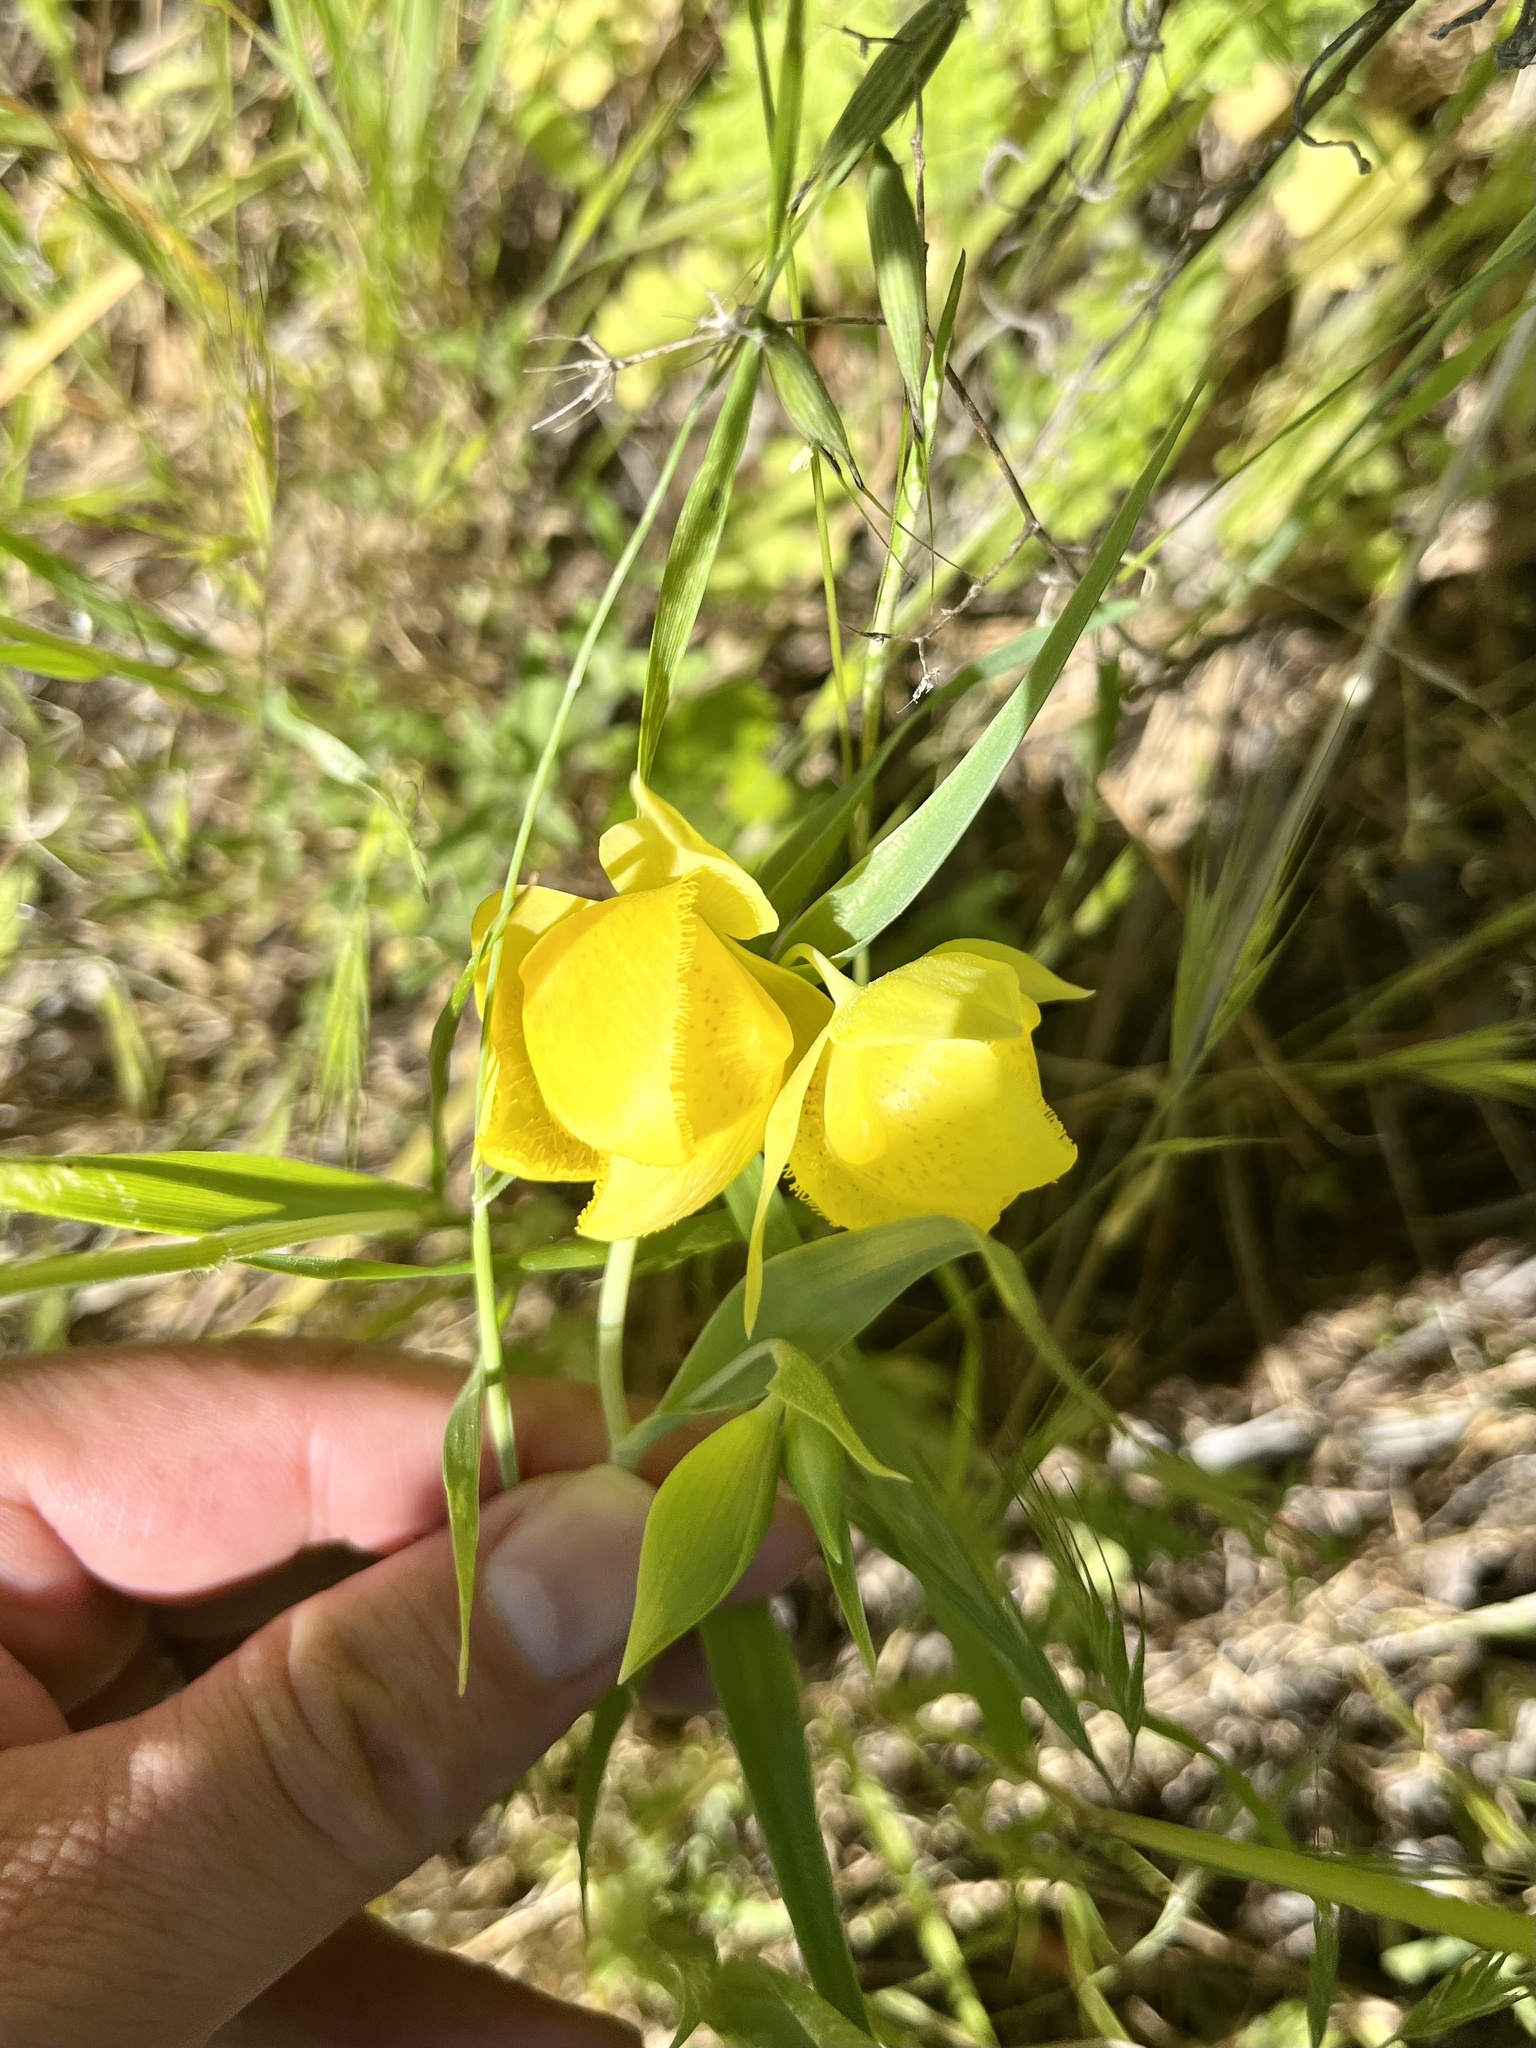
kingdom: Plantae
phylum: Tracheophyta
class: Liliopsida
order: Liliales
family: Liliaceae
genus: Calochortus
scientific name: Calochortus pulchellus
